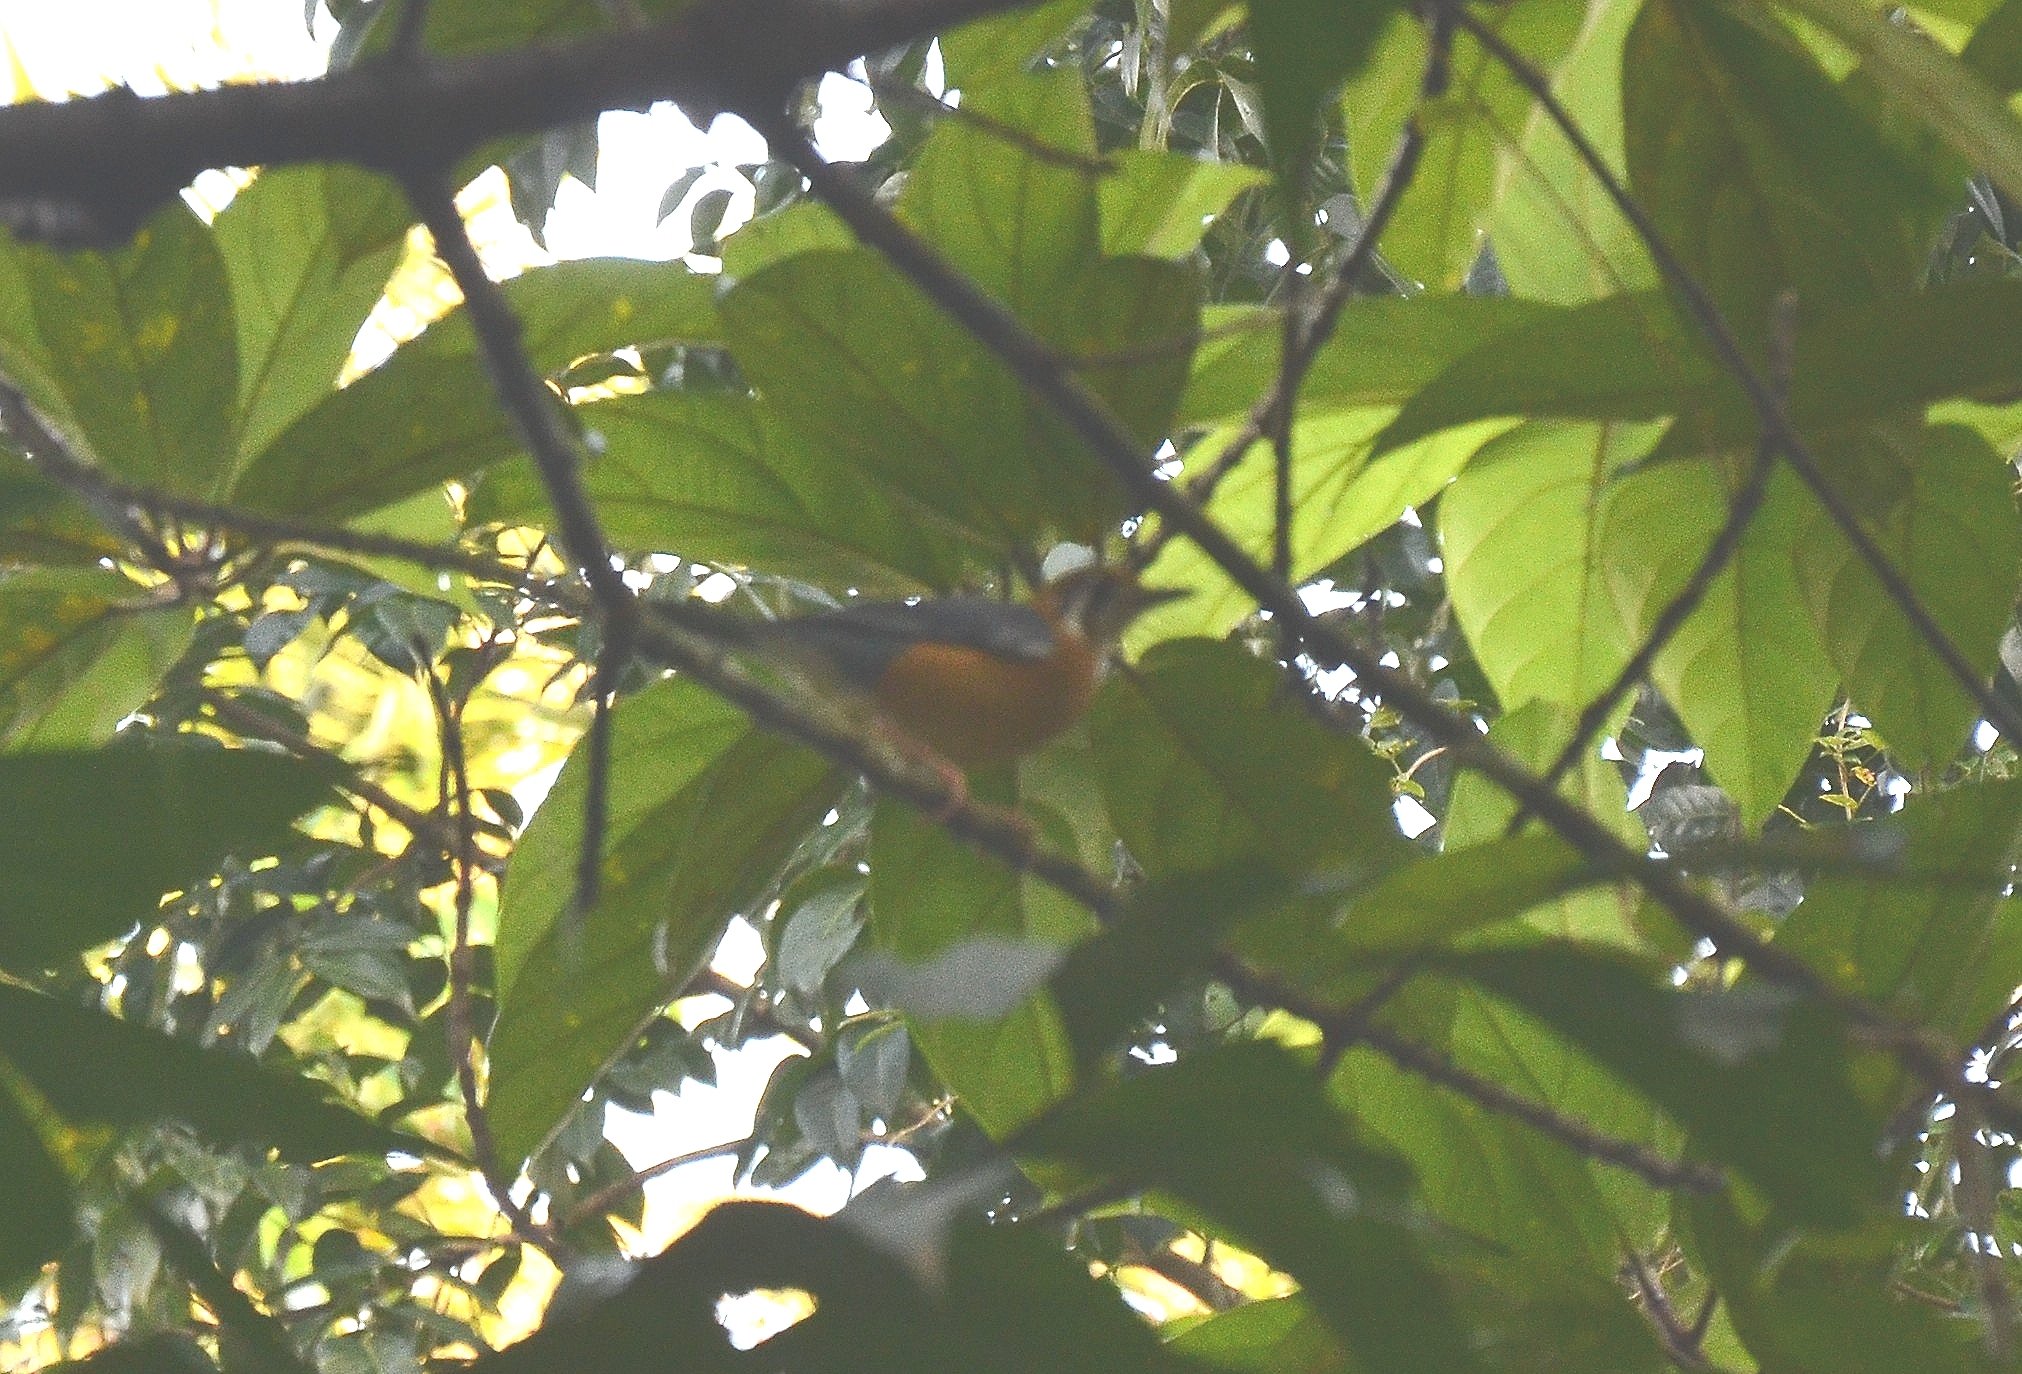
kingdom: Animalia
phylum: Chordata
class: Aves
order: Passeriformes
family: Turdidae
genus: Geokichla
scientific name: Geokichla citrina
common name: Orange-headed thrush
